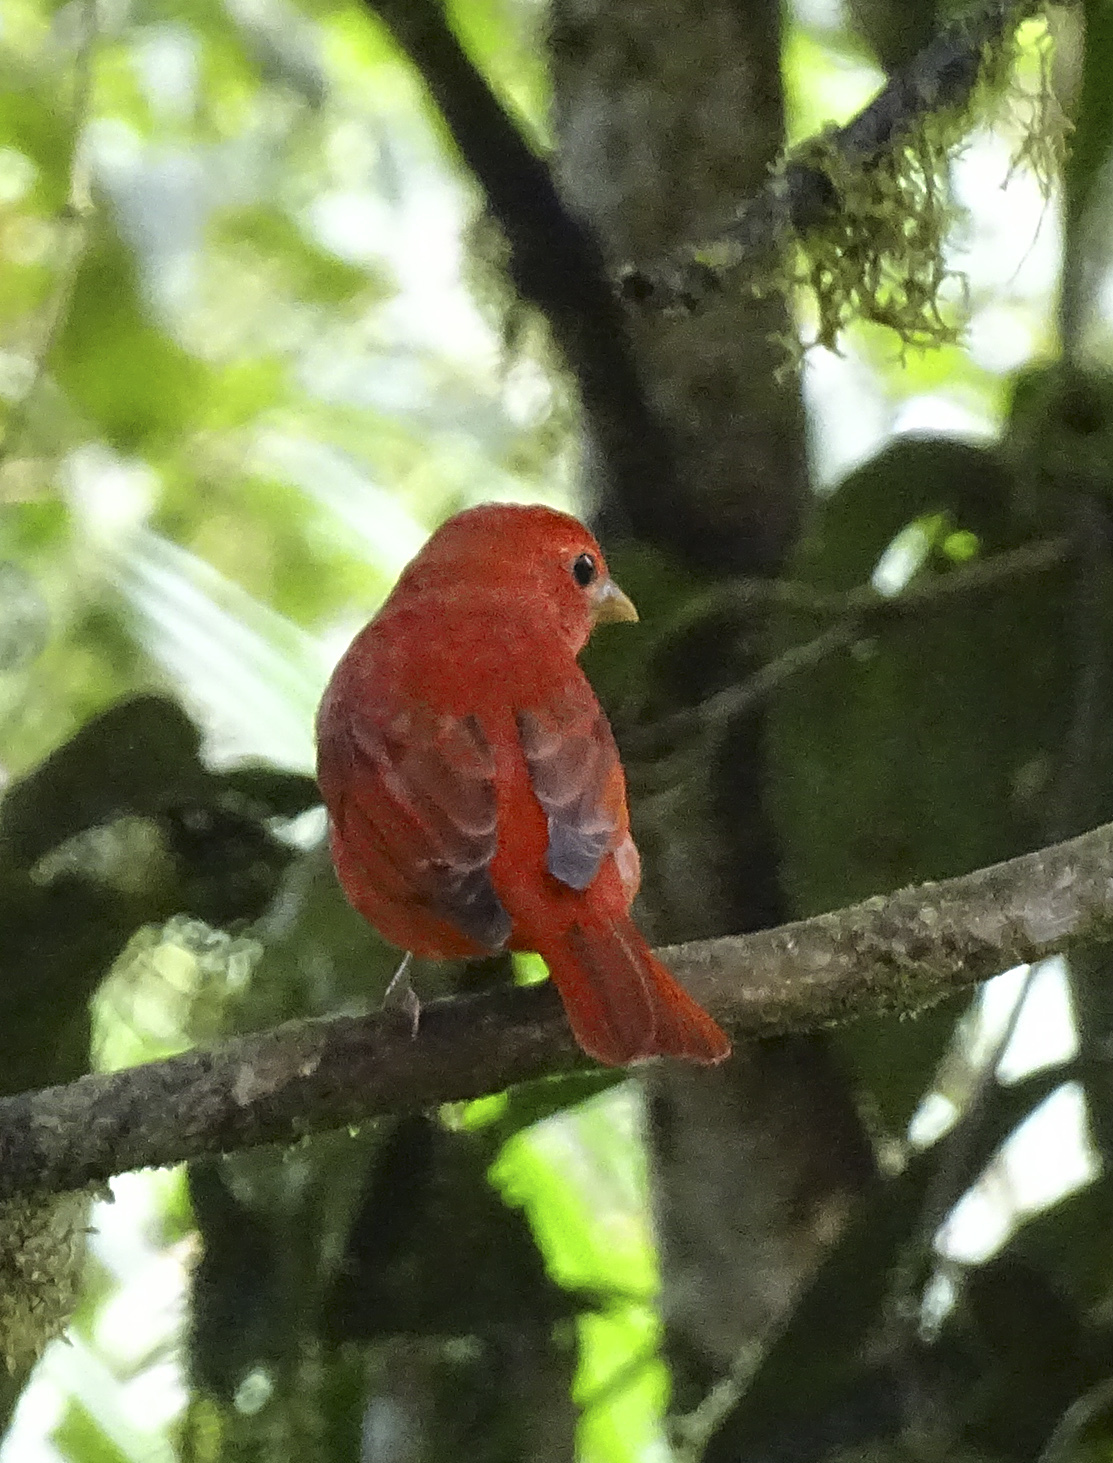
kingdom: Animalia
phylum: Chordata
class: Aves
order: Passeriformes
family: Cardinalidae
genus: Piranga
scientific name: Piranga rubra
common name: Summer tanager
